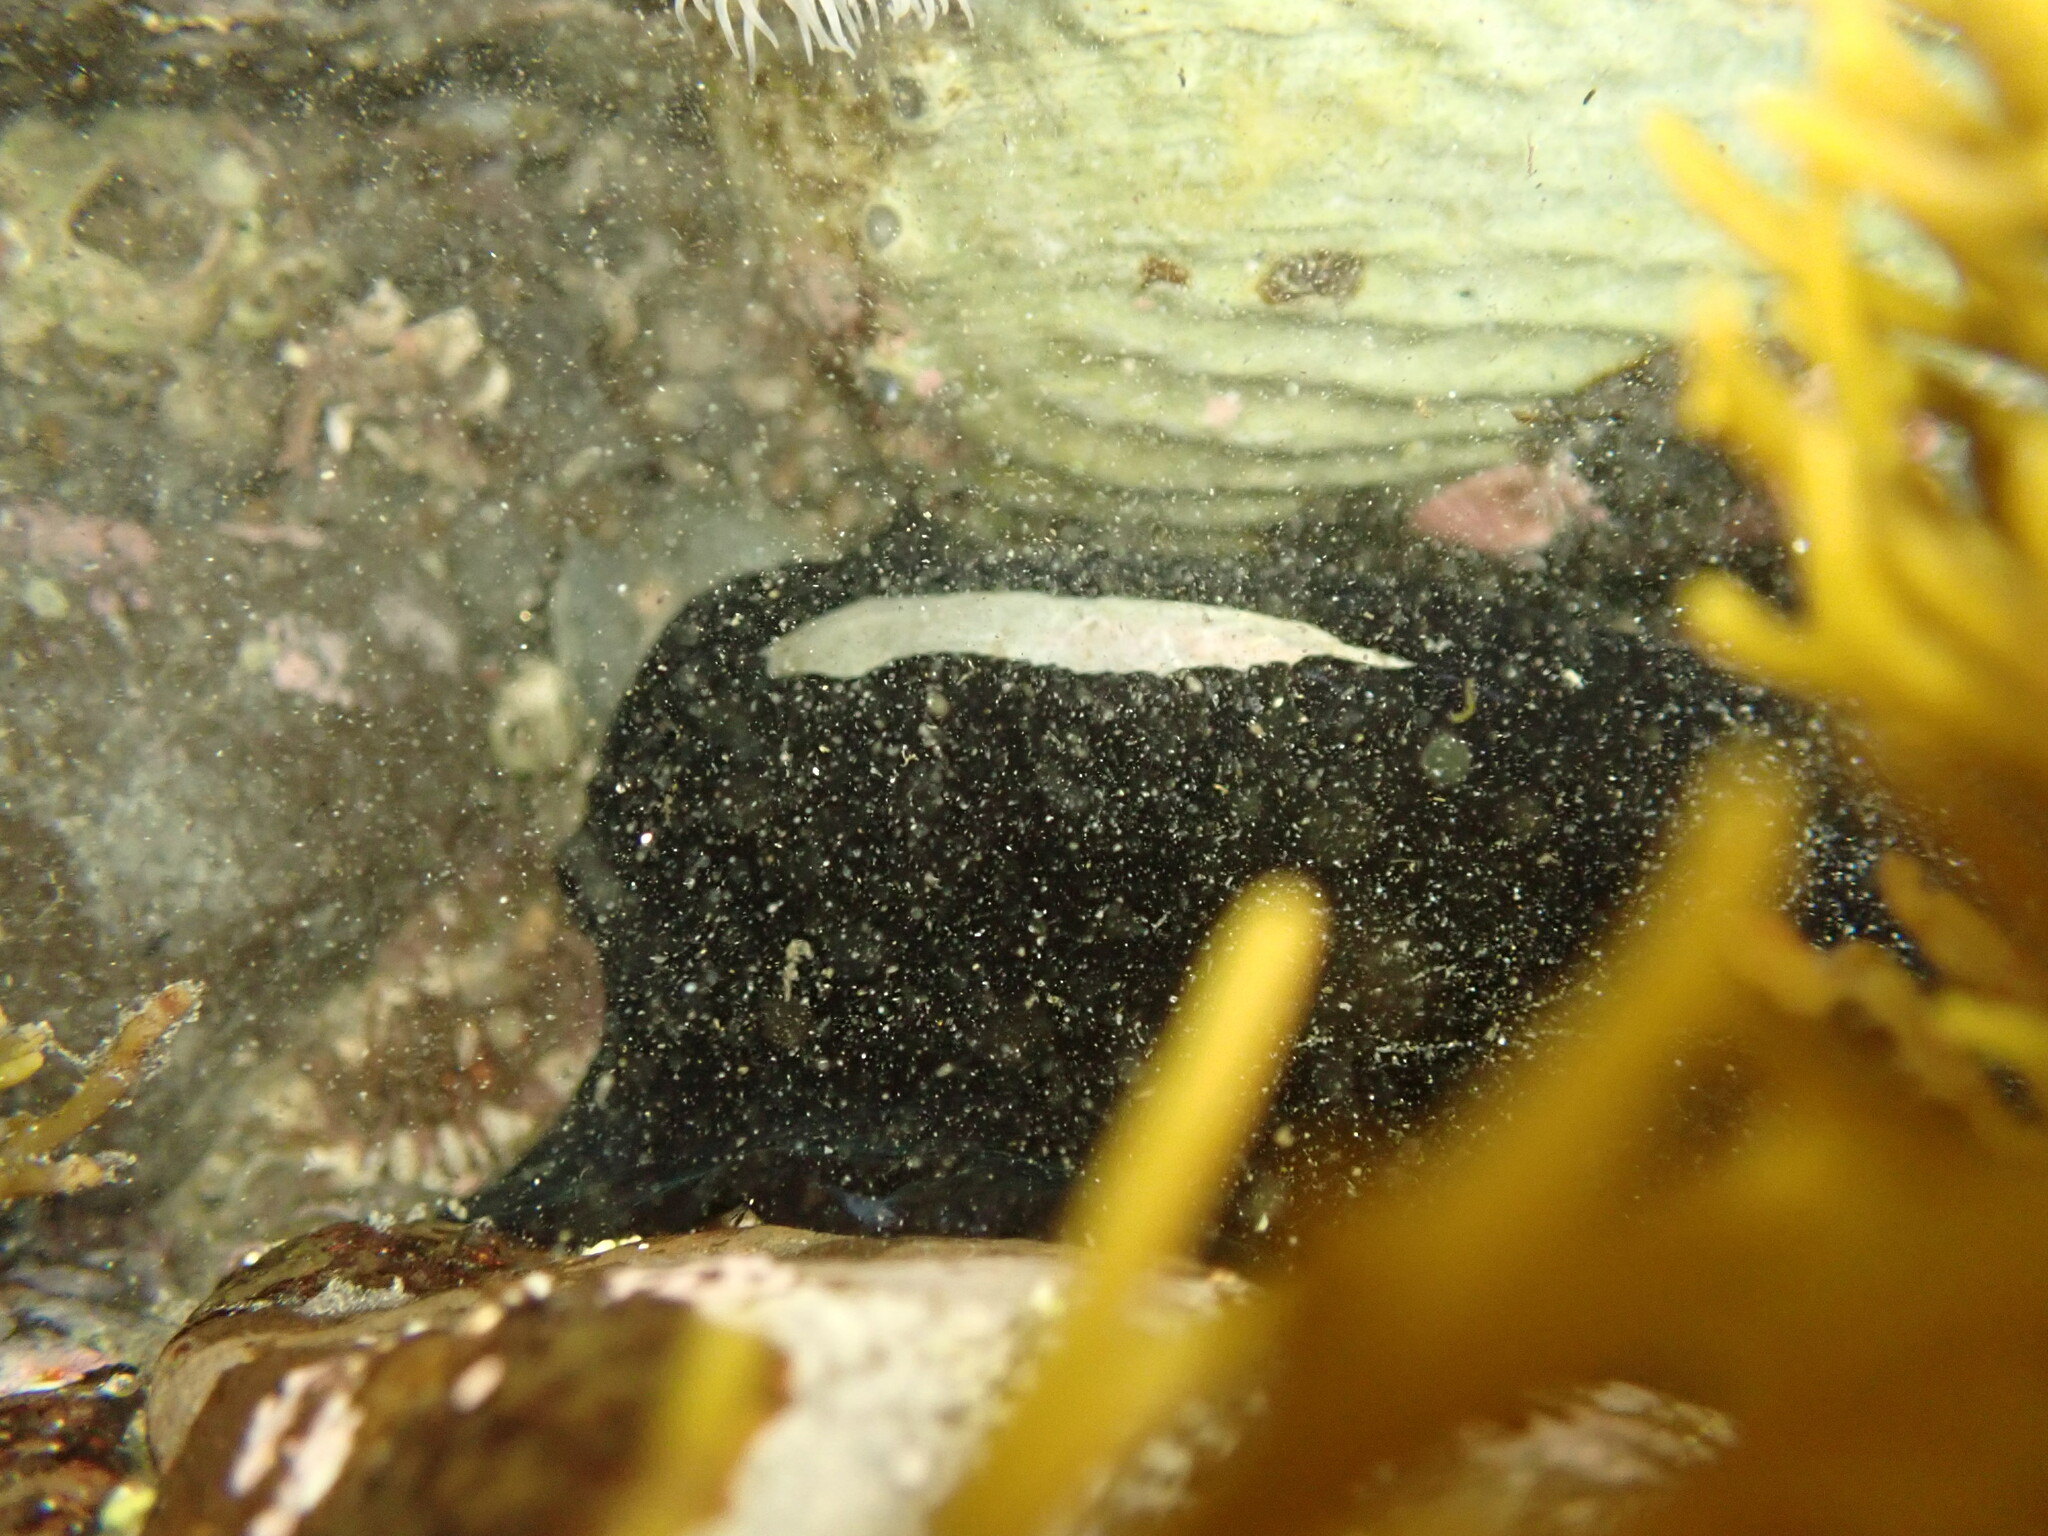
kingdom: Animalia
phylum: Mollusca
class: Gastropoda
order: Lepetellida
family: Fissurellidae
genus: Scutus
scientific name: Scutus breviculus
